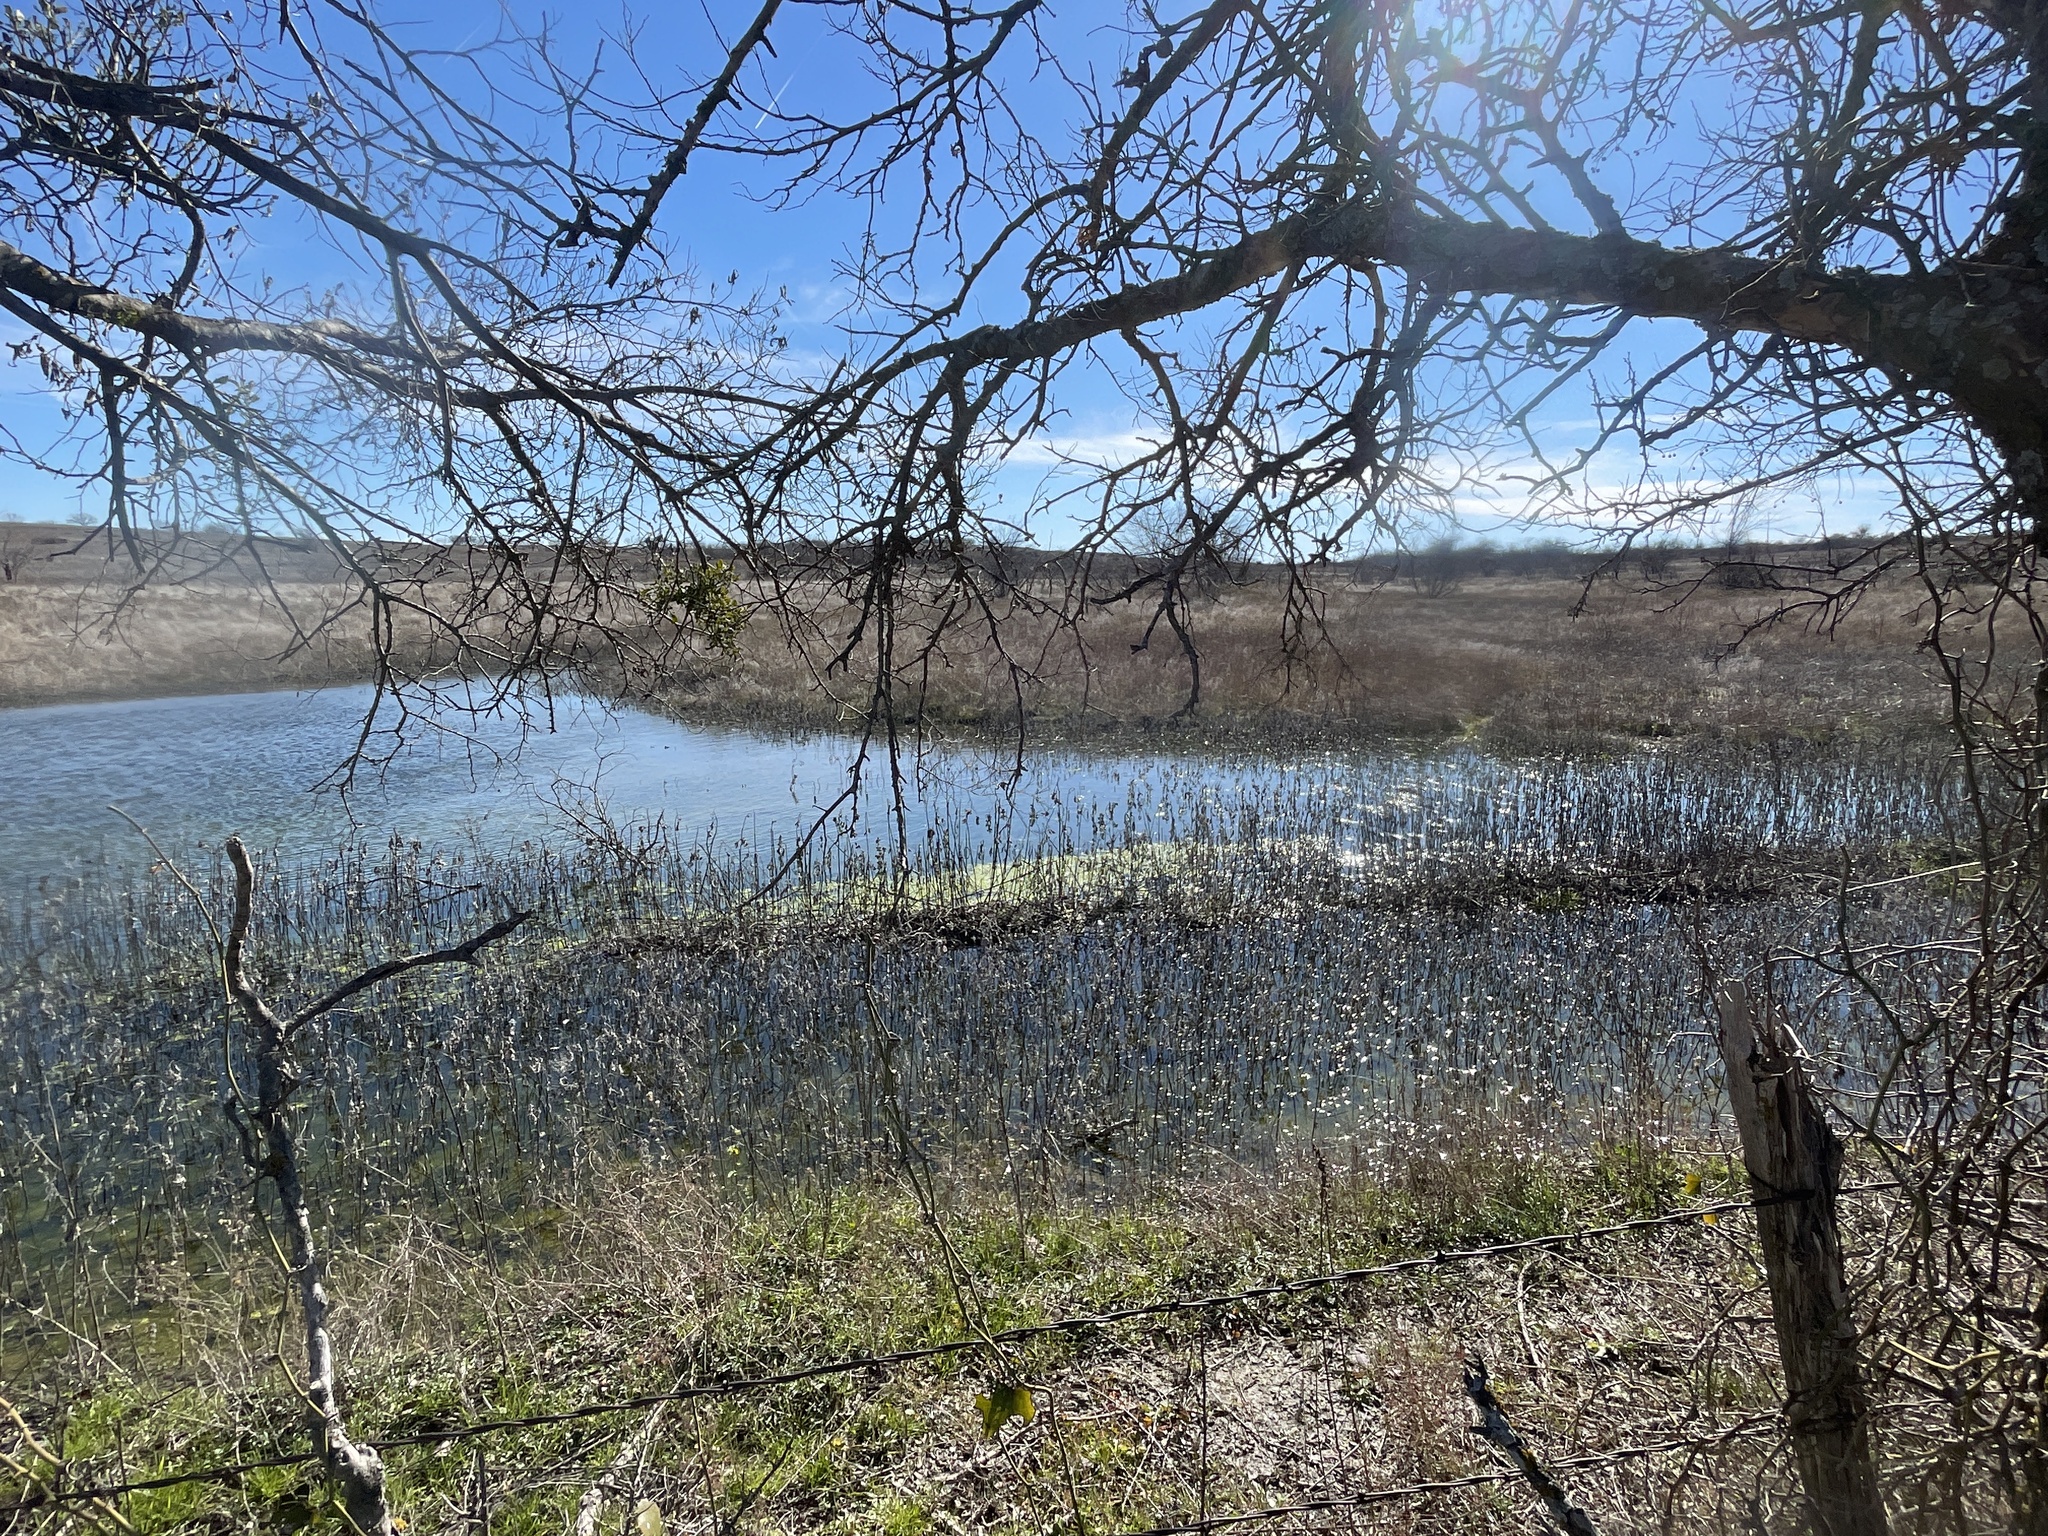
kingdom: Animalia
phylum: Chordata
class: Amphibia
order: Anura
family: Hylidae
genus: Pseudacris
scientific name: Pseudacris streckeri
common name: Strecker's chorus frog
